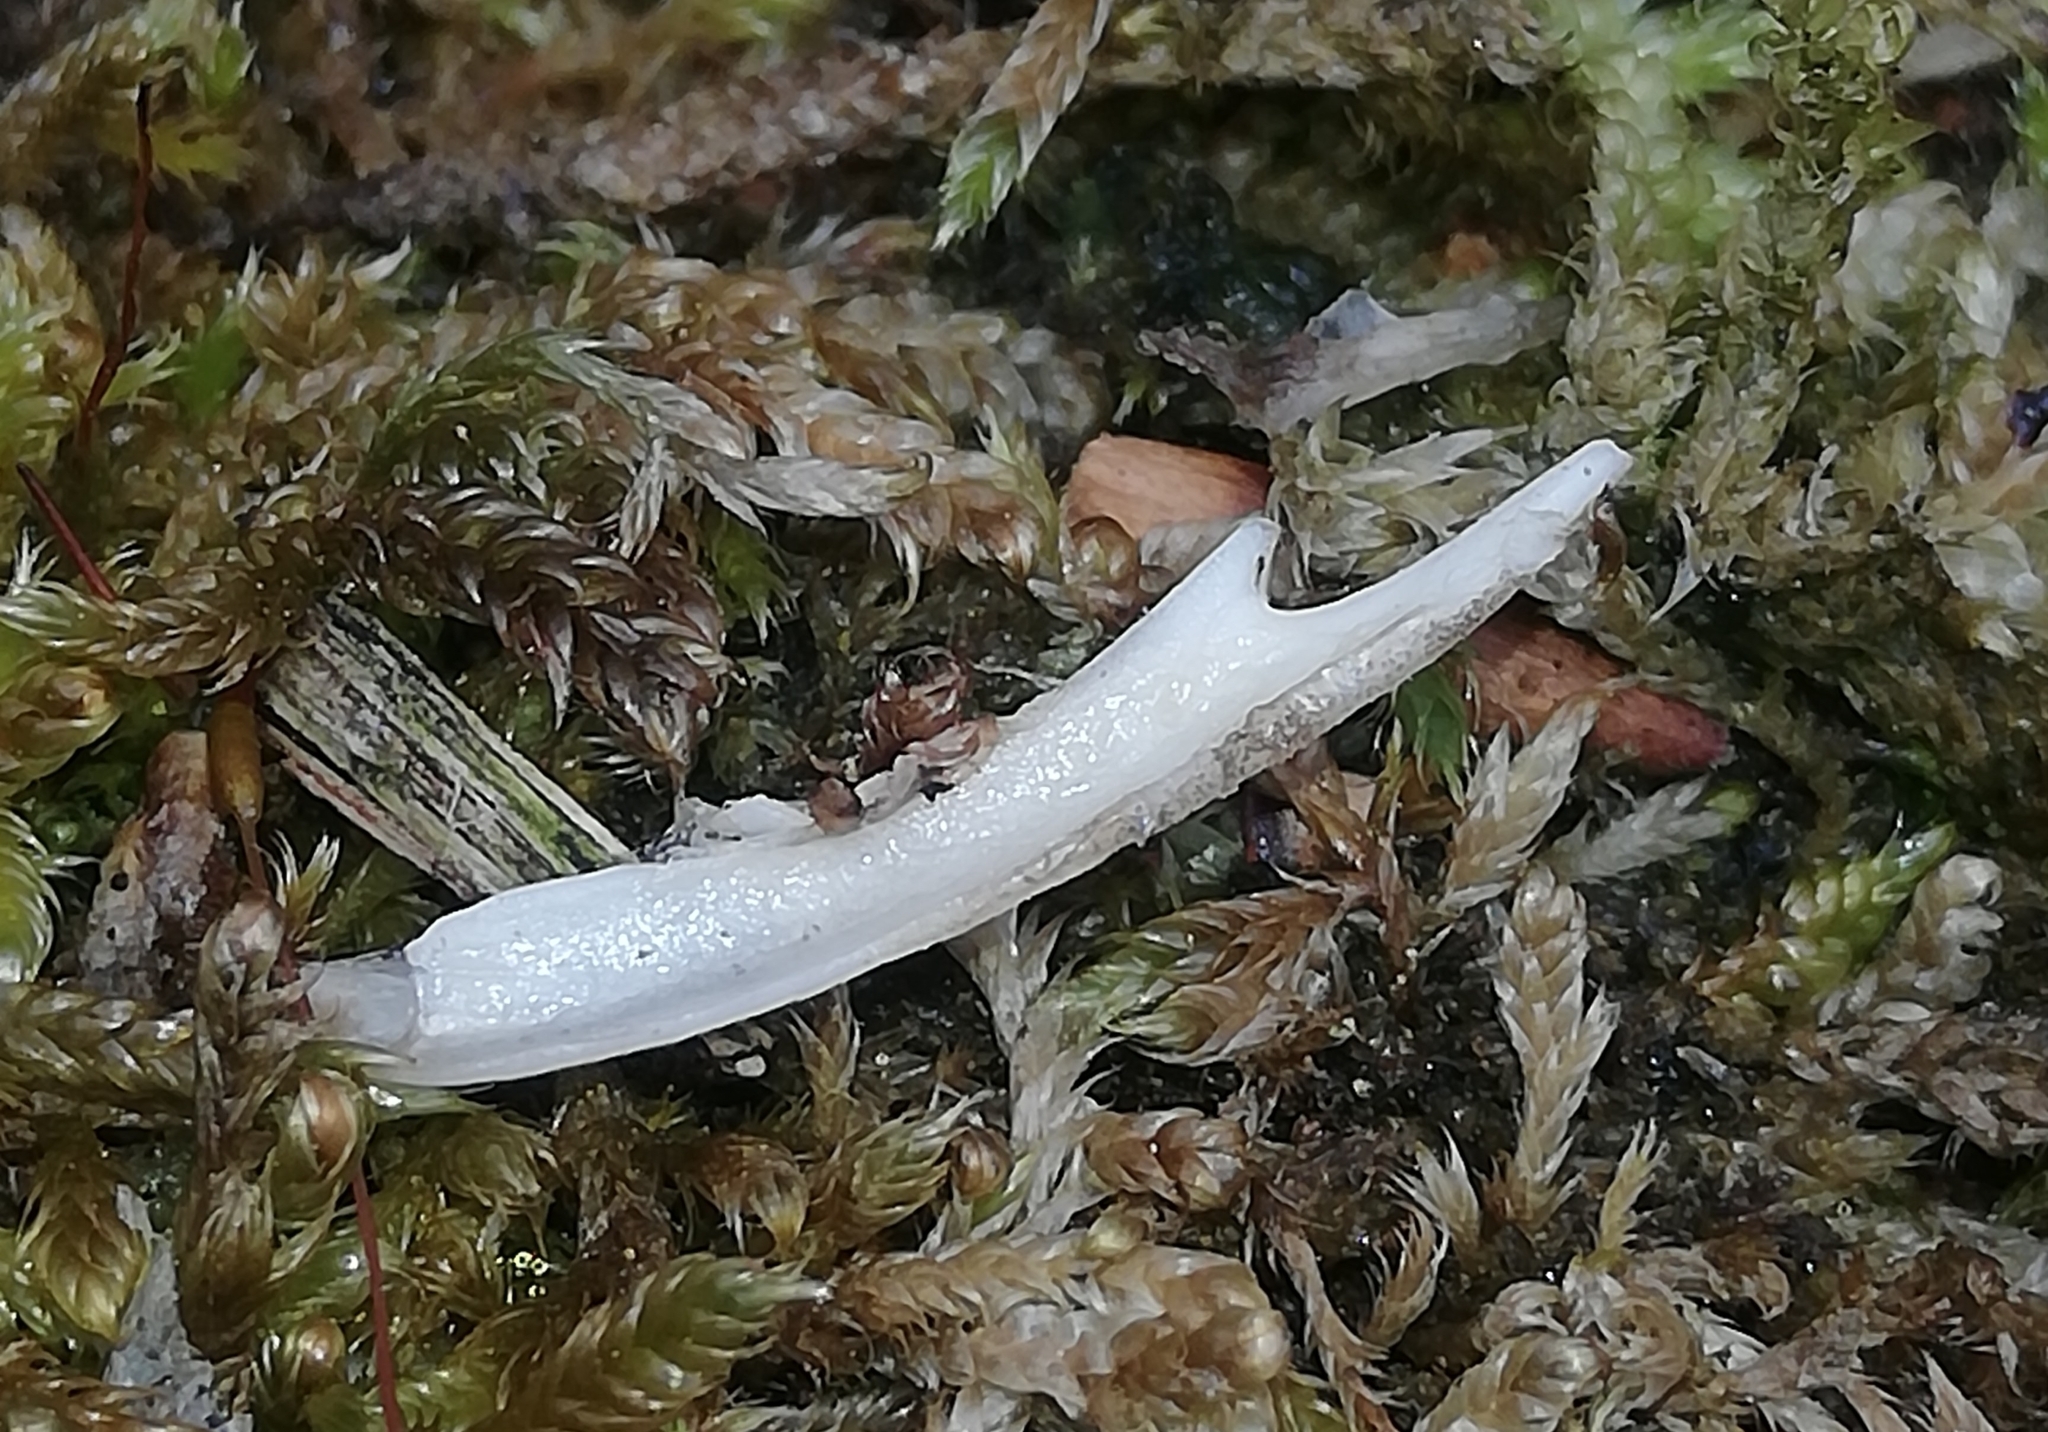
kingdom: Animalia
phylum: Chordata
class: Amphibia
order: Anura
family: Bufonidae
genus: Bufo
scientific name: Bufo bufo
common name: Common toad
